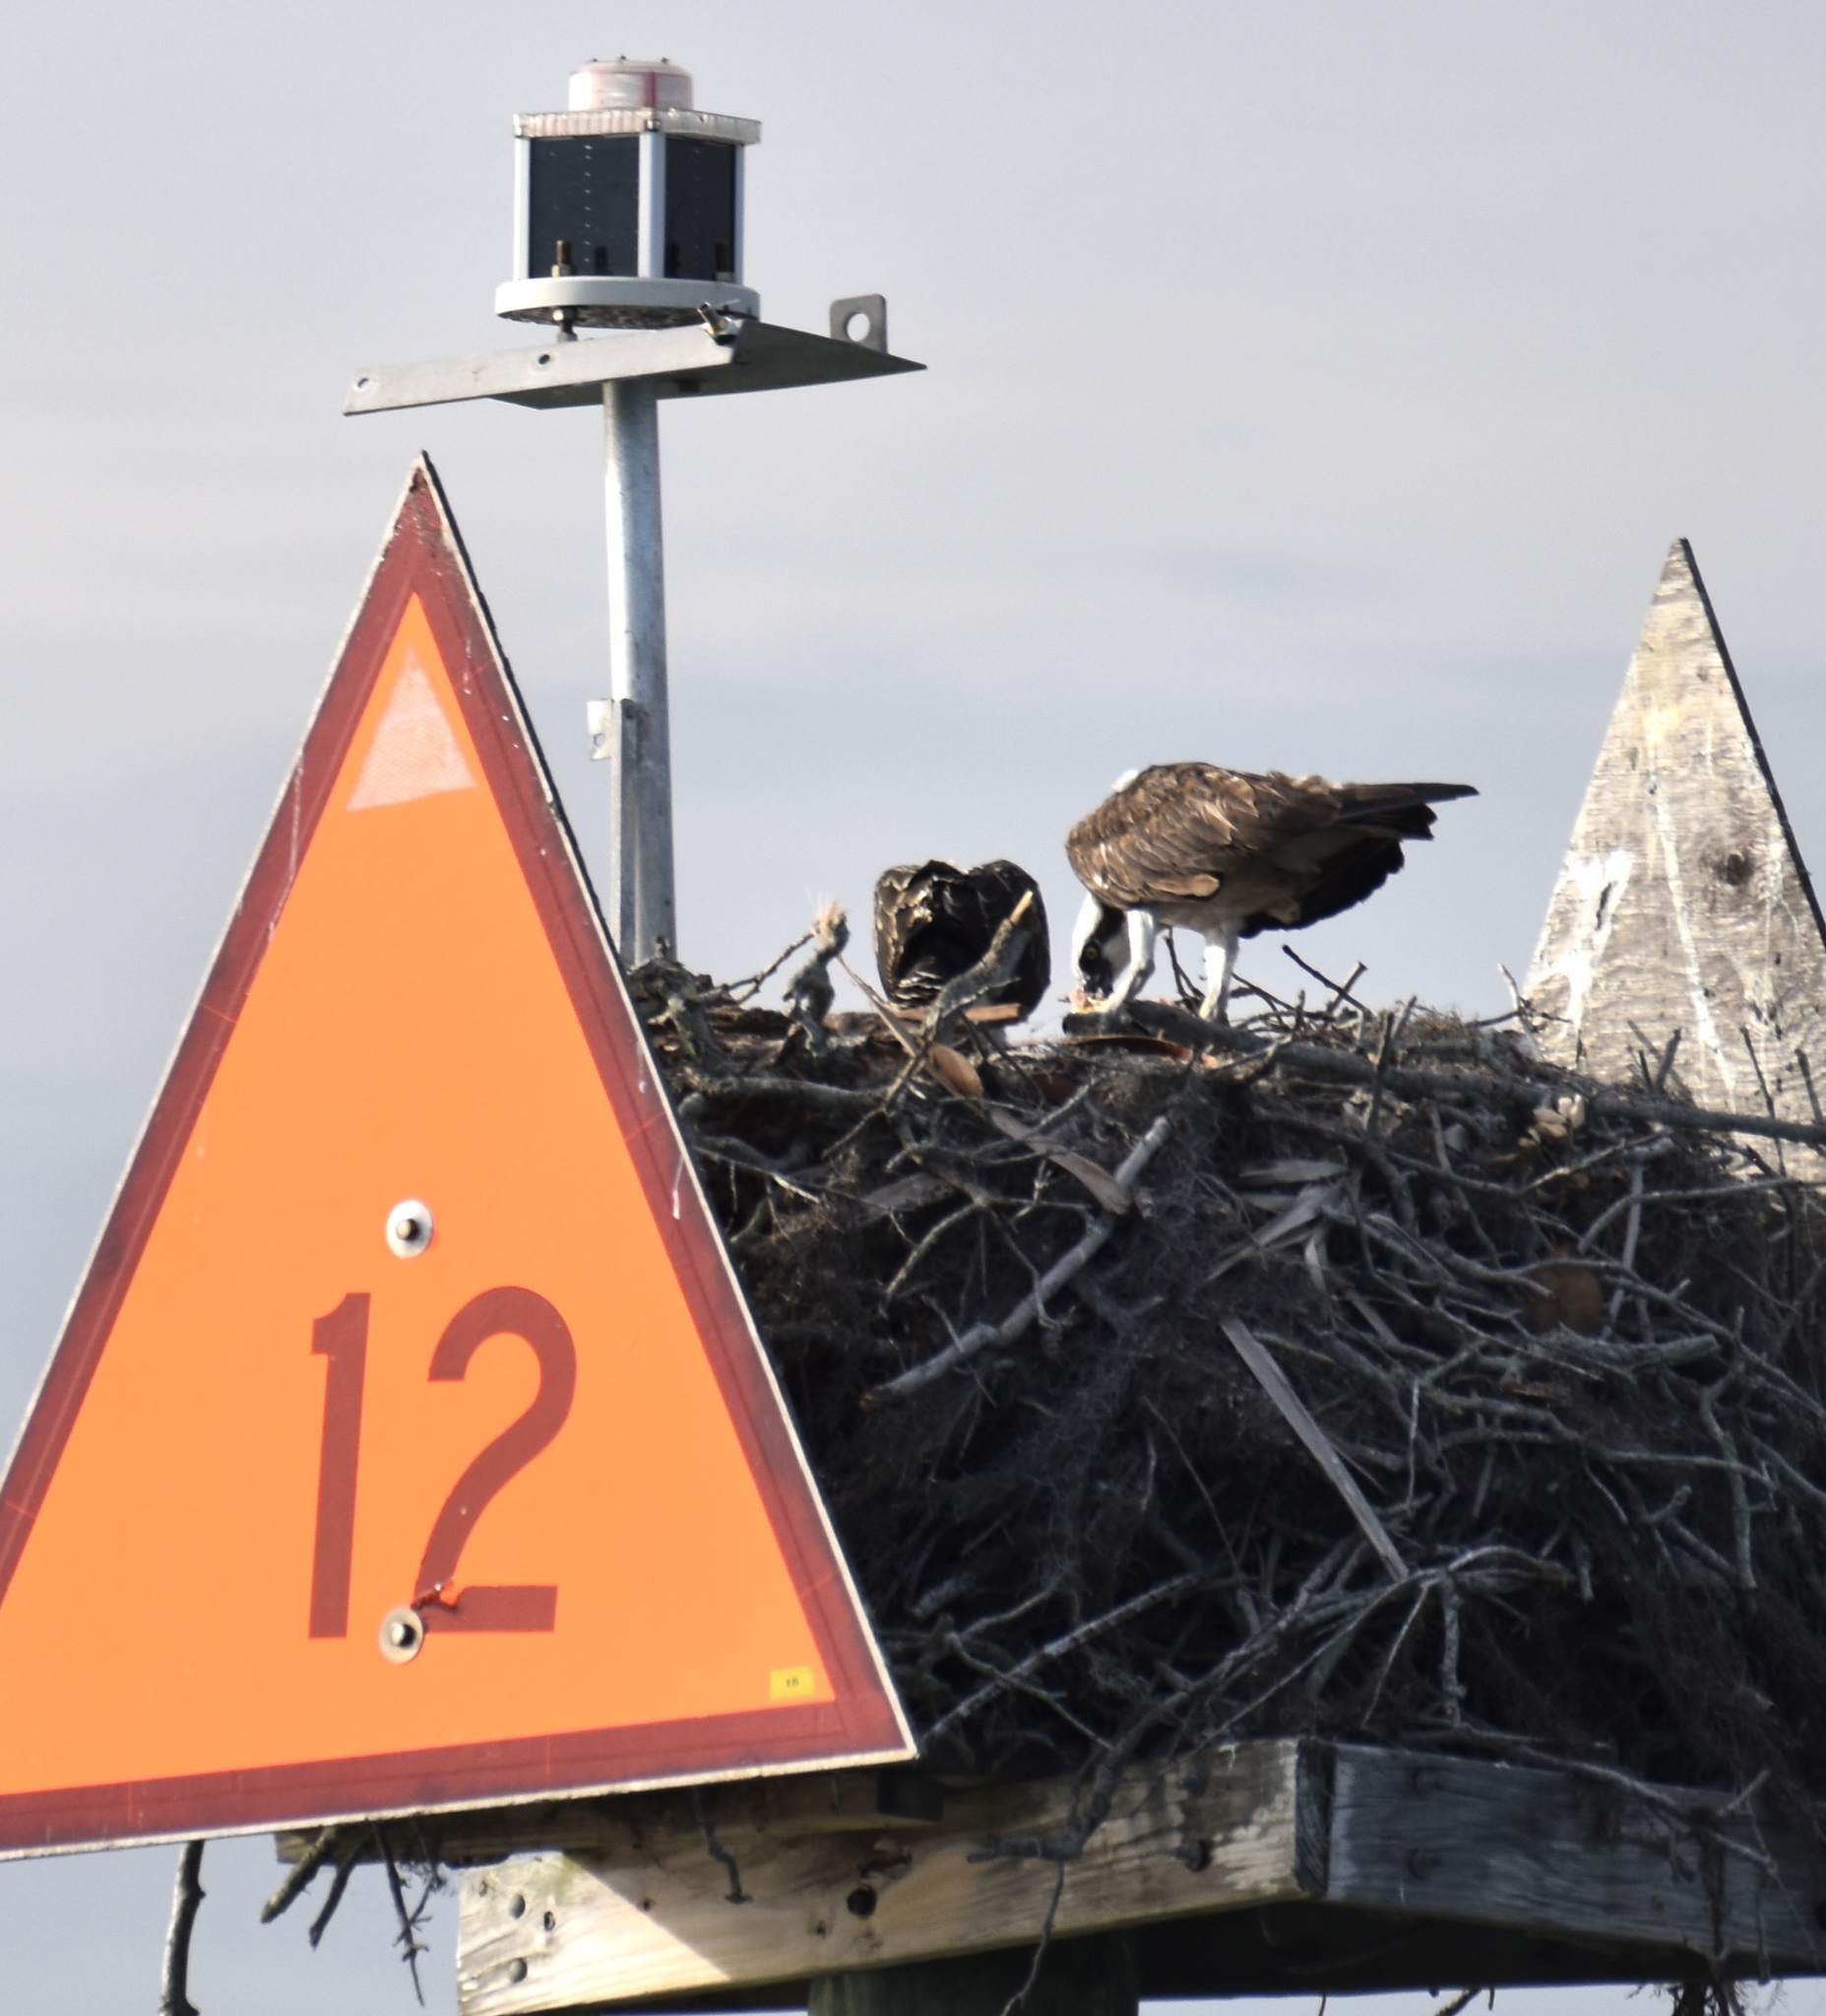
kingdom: Animalia
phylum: Chordata
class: Aves
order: Accipitriformes
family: Pandionidae
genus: Pandion
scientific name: Pandion haliaetus
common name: Osprey
